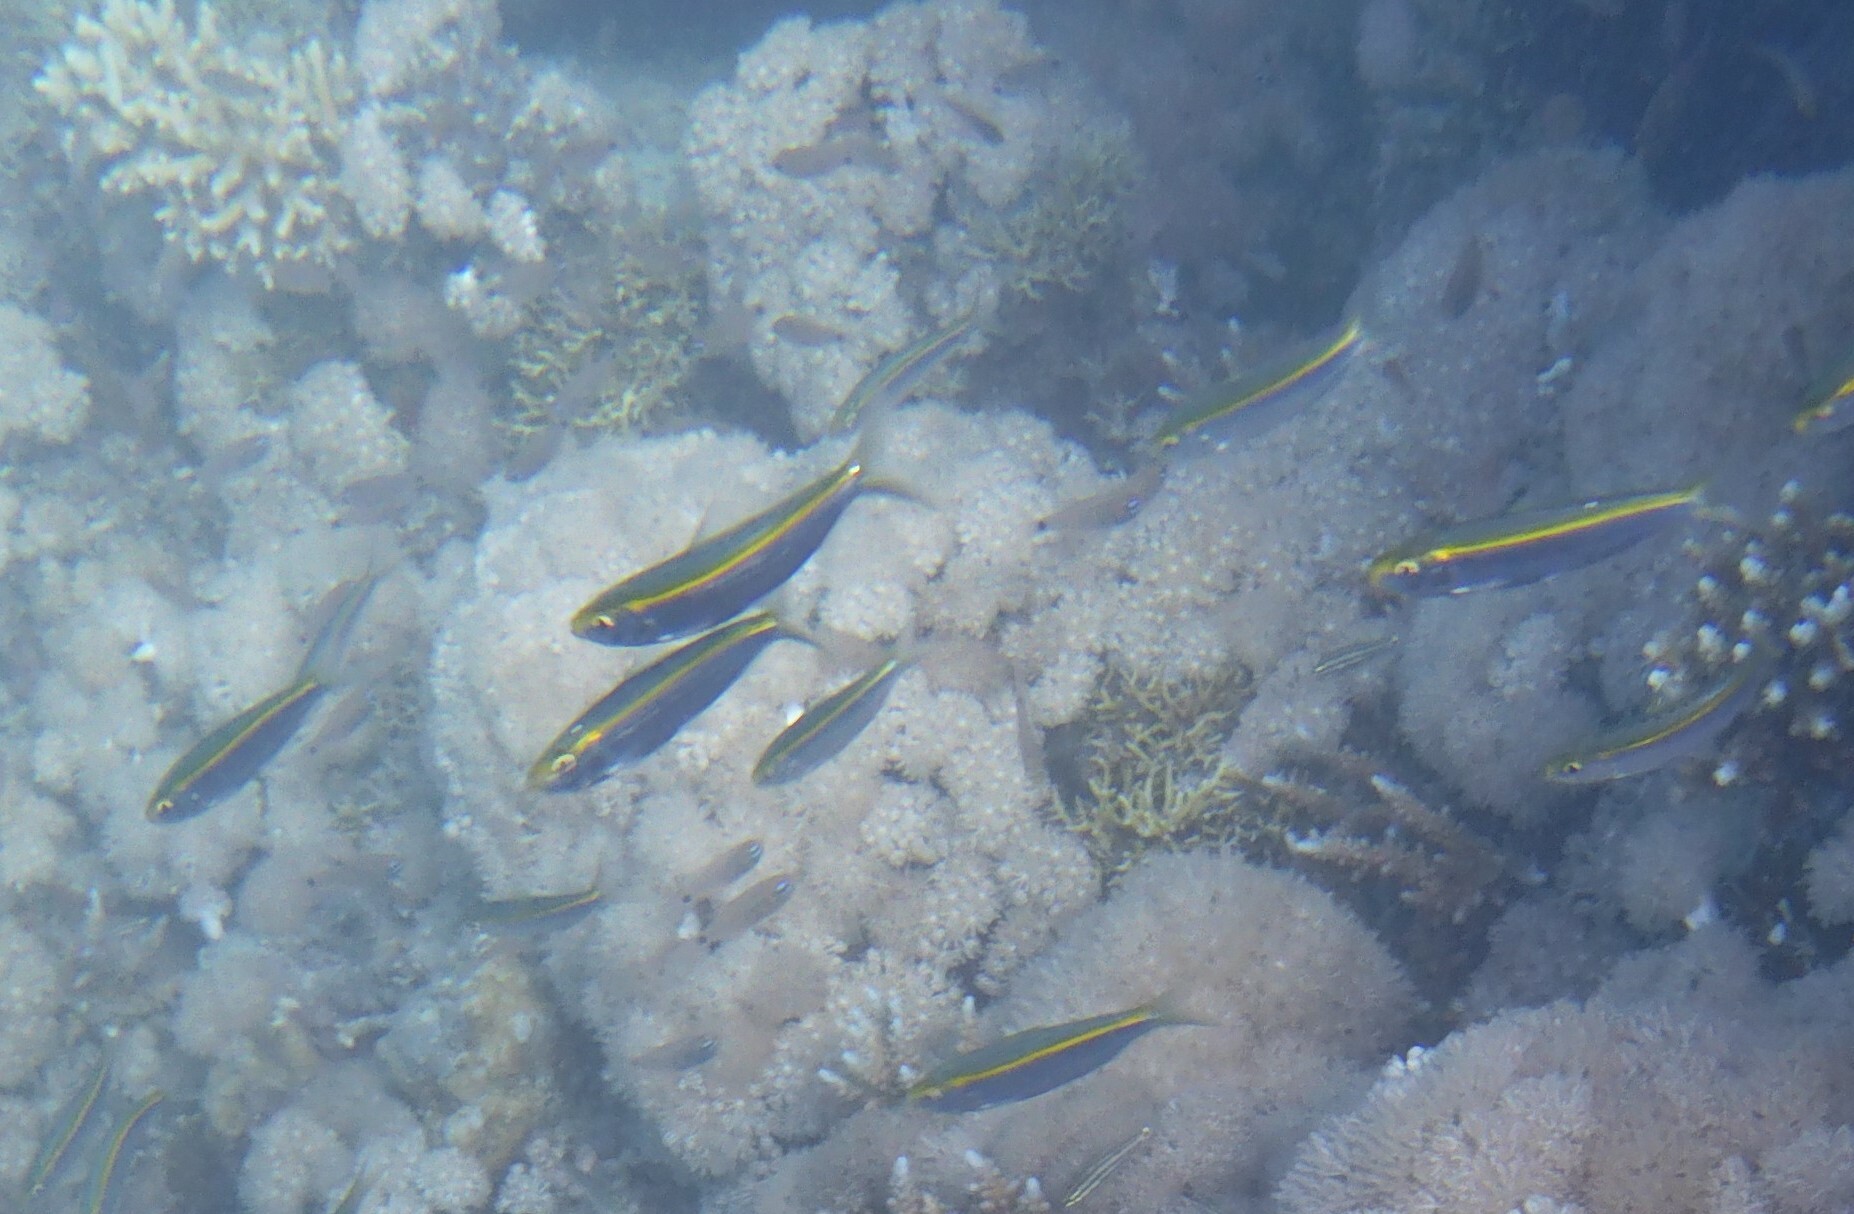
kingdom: Animalia
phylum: Chordata
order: Clupeiformes
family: Clupeidae
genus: Herklotsichthys
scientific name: Herklotsichthys punctatus
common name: Spotback herring
